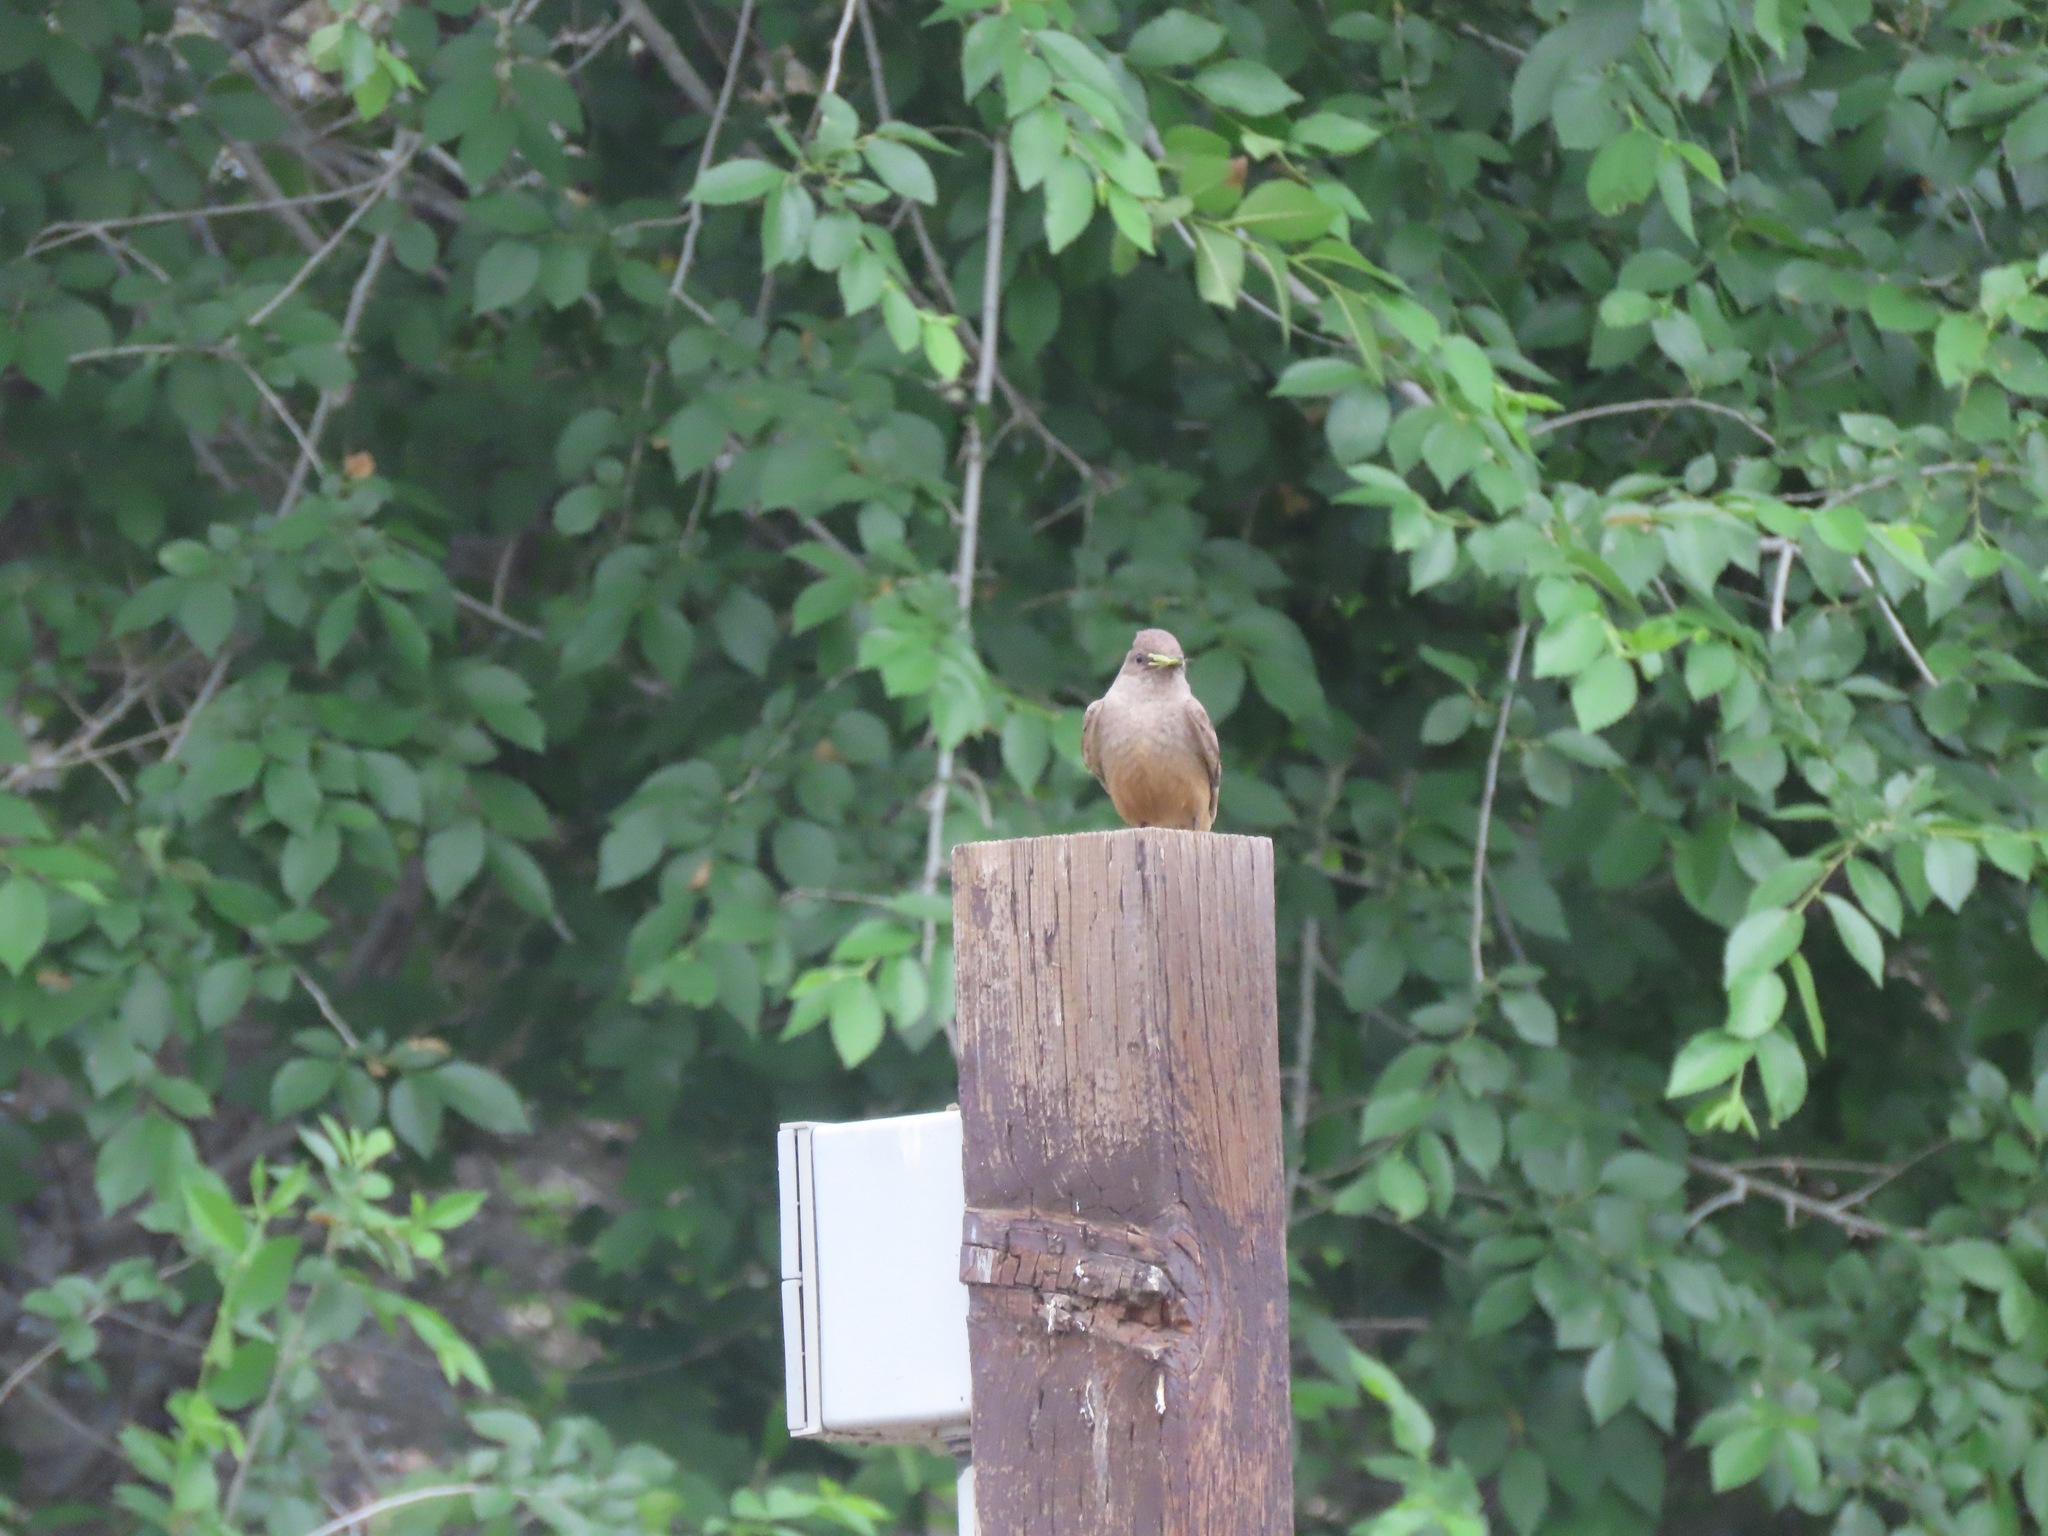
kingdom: Animalia
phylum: Chordata
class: Aves
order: Passeriformes
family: Tyrannidae
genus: Sayornis
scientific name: Sayornis saya
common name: Say's phoebe
